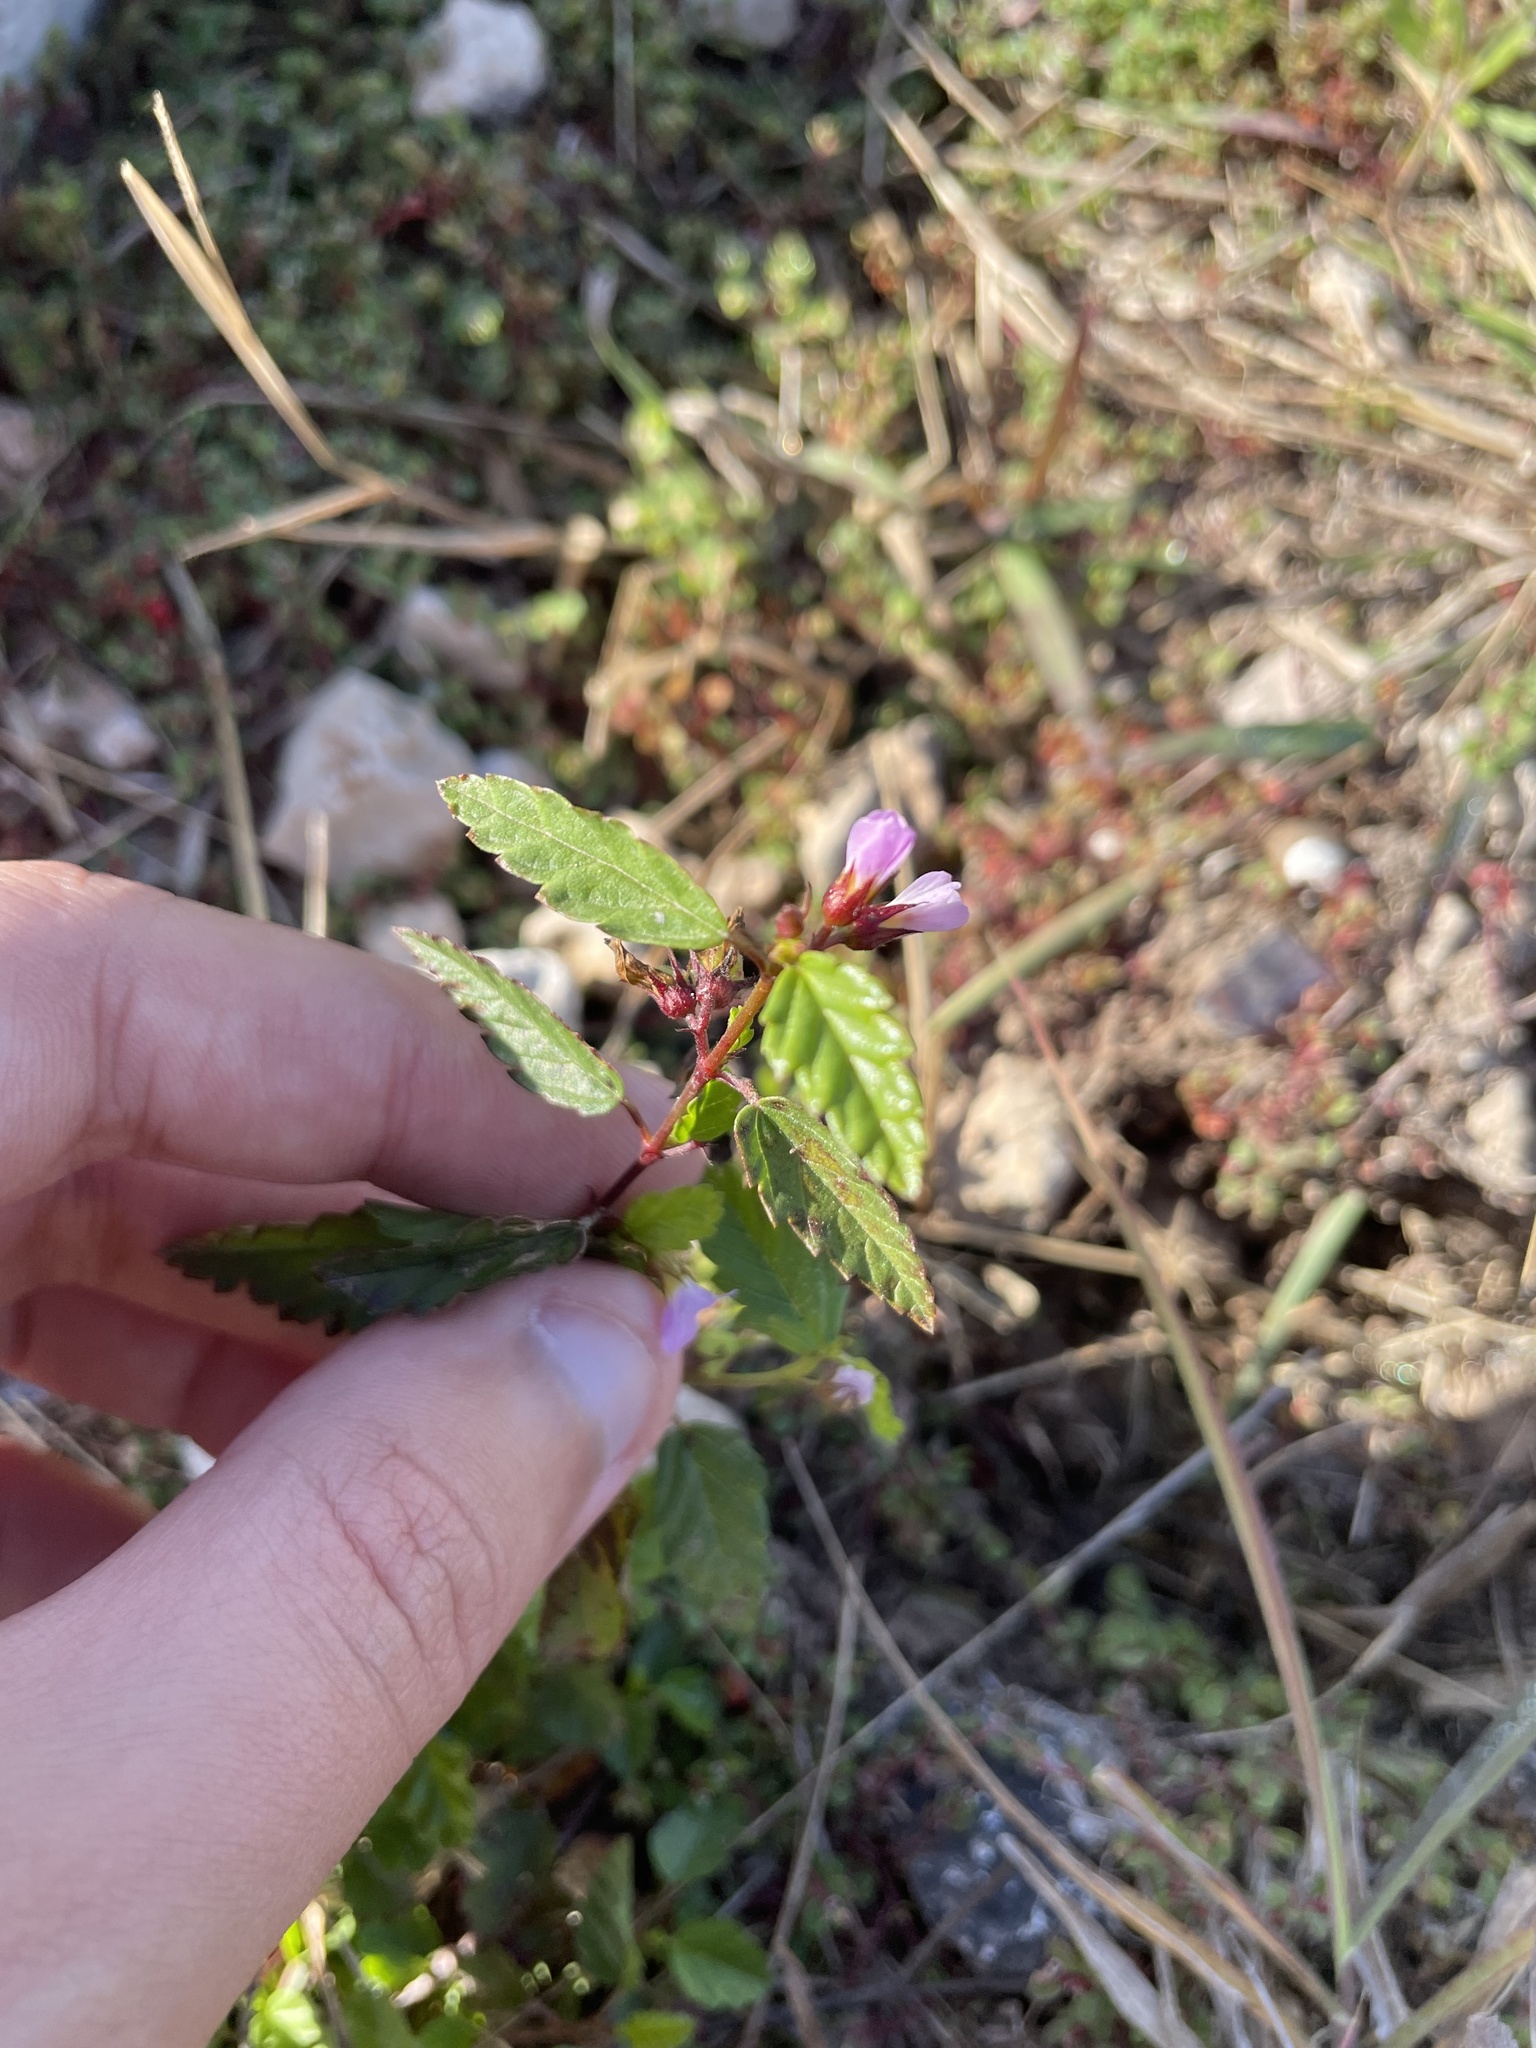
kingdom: Plantae
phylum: Tracheophyta
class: Magnoliopsida
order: Malvales
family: Malvaceae
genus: Melochia
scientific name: Melochia pyramidata
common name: Pyramidflower
